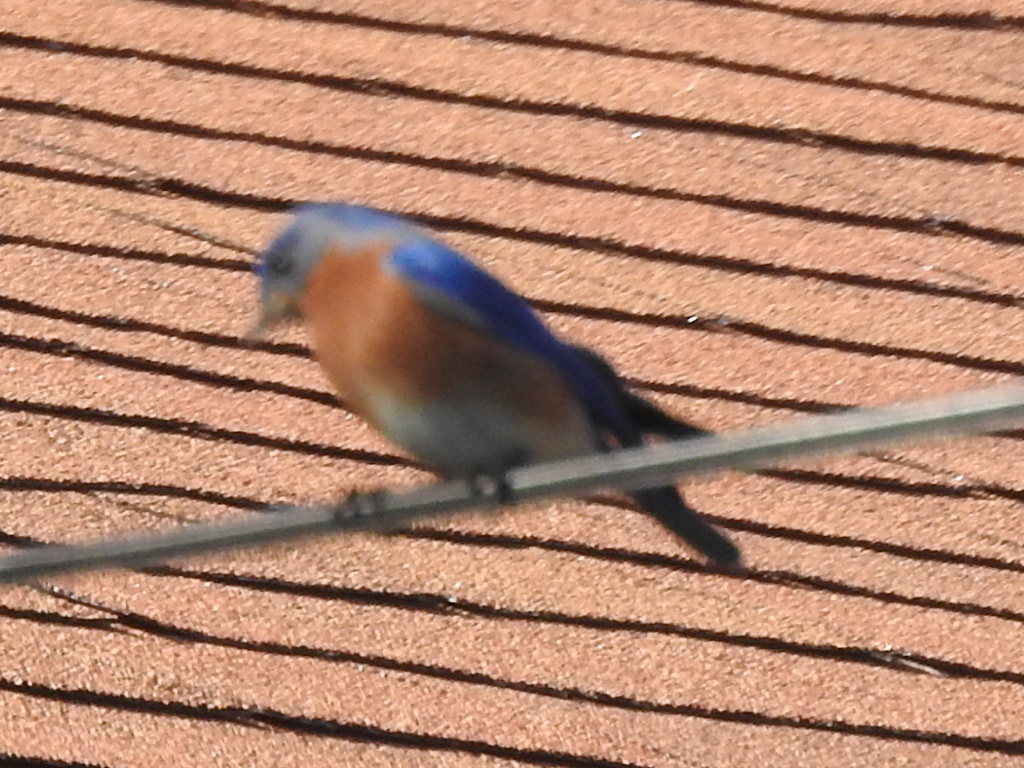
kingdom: Animalia
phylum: Chordata
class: Aves
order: Passeriformes
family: Turdidae
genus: Sialia
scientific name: Sialia sialis
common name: Eastern bluebird
